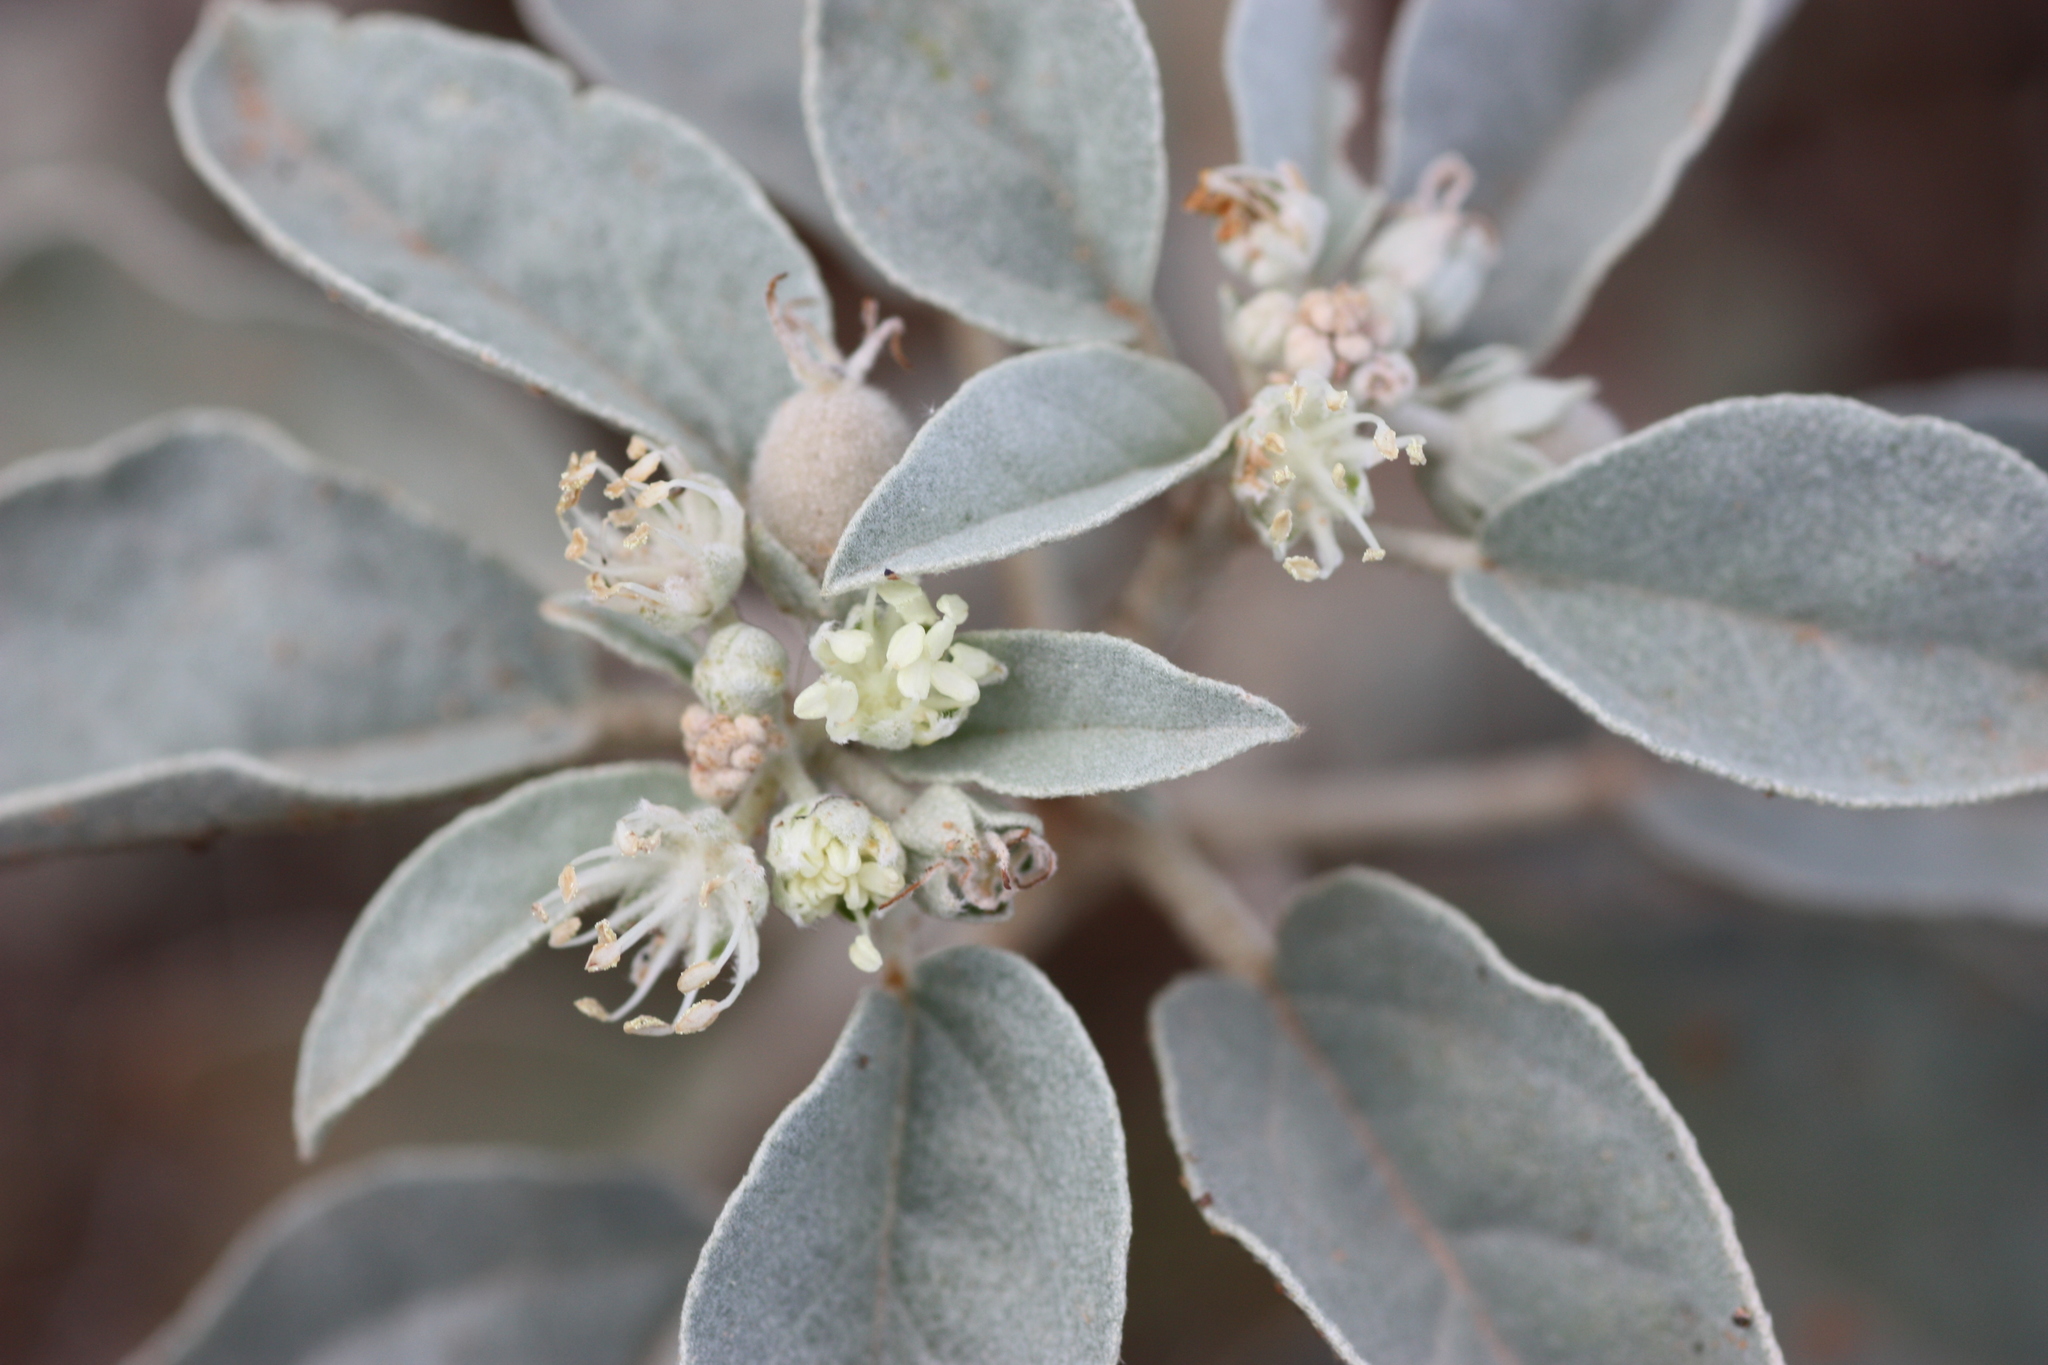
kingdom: Plantae
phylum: Tracheophyta
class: Magnoliopsida
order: Malpighiales
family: Euphorbiaceae
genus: Croton
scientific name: Croton pottsii
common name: Leatherweed
